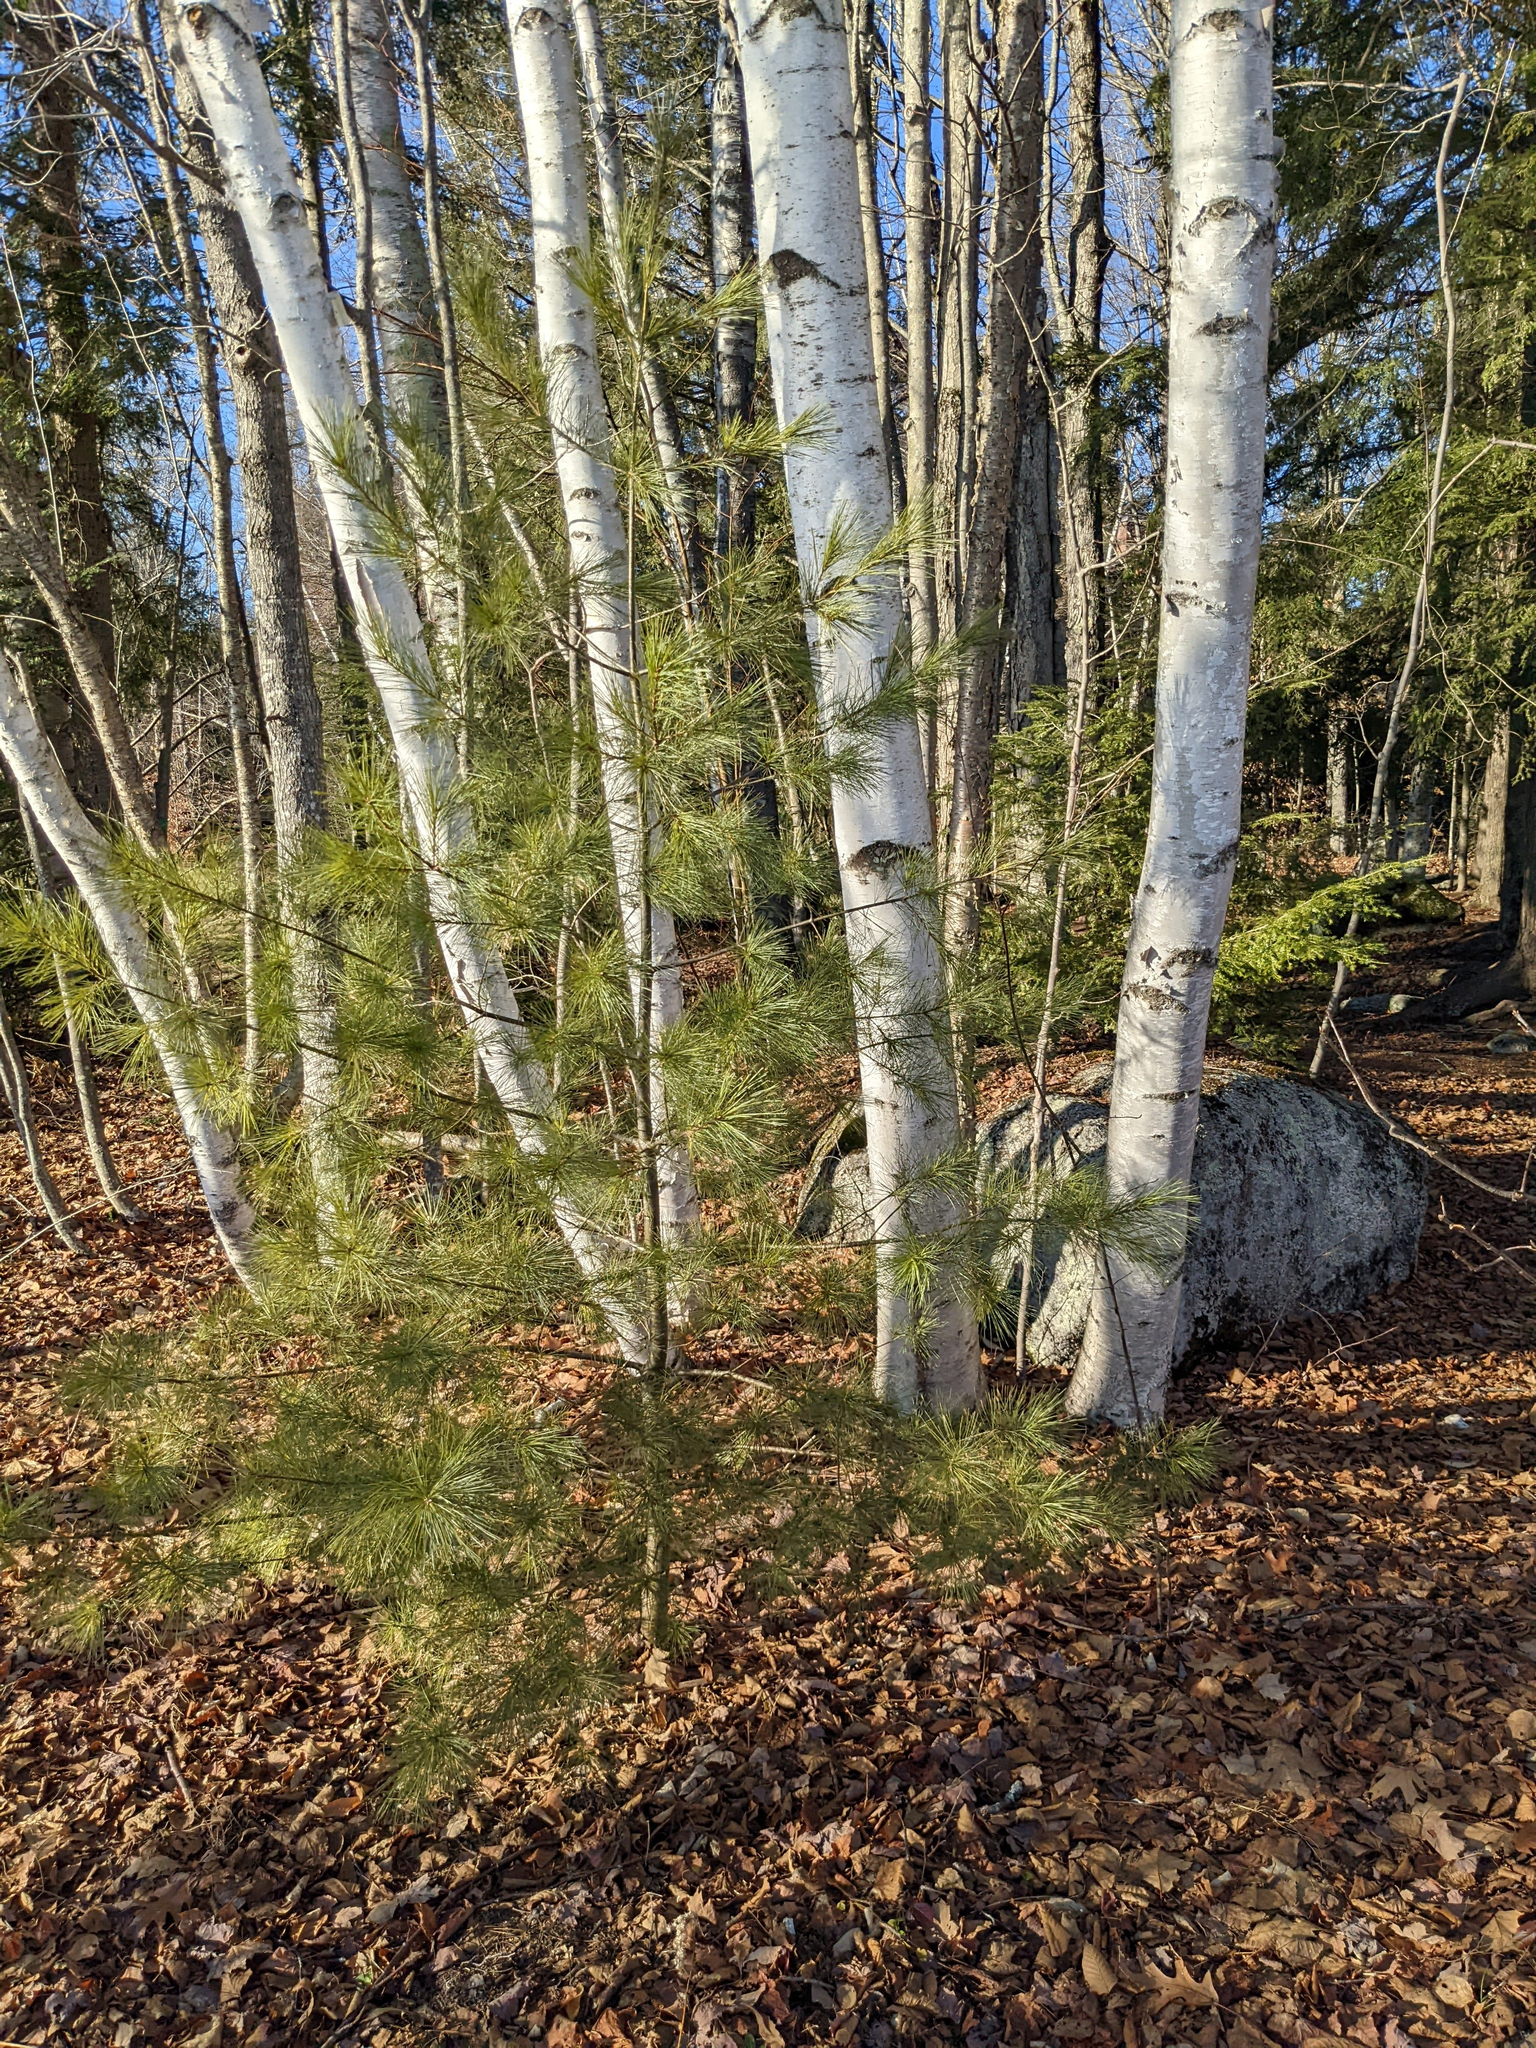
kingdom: Plantae
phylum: Tracheophyta
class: Pinopsida
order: Pinales
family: Pinaceae
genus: Pinus
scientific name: Pinus strobus
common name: Weymouth pine
